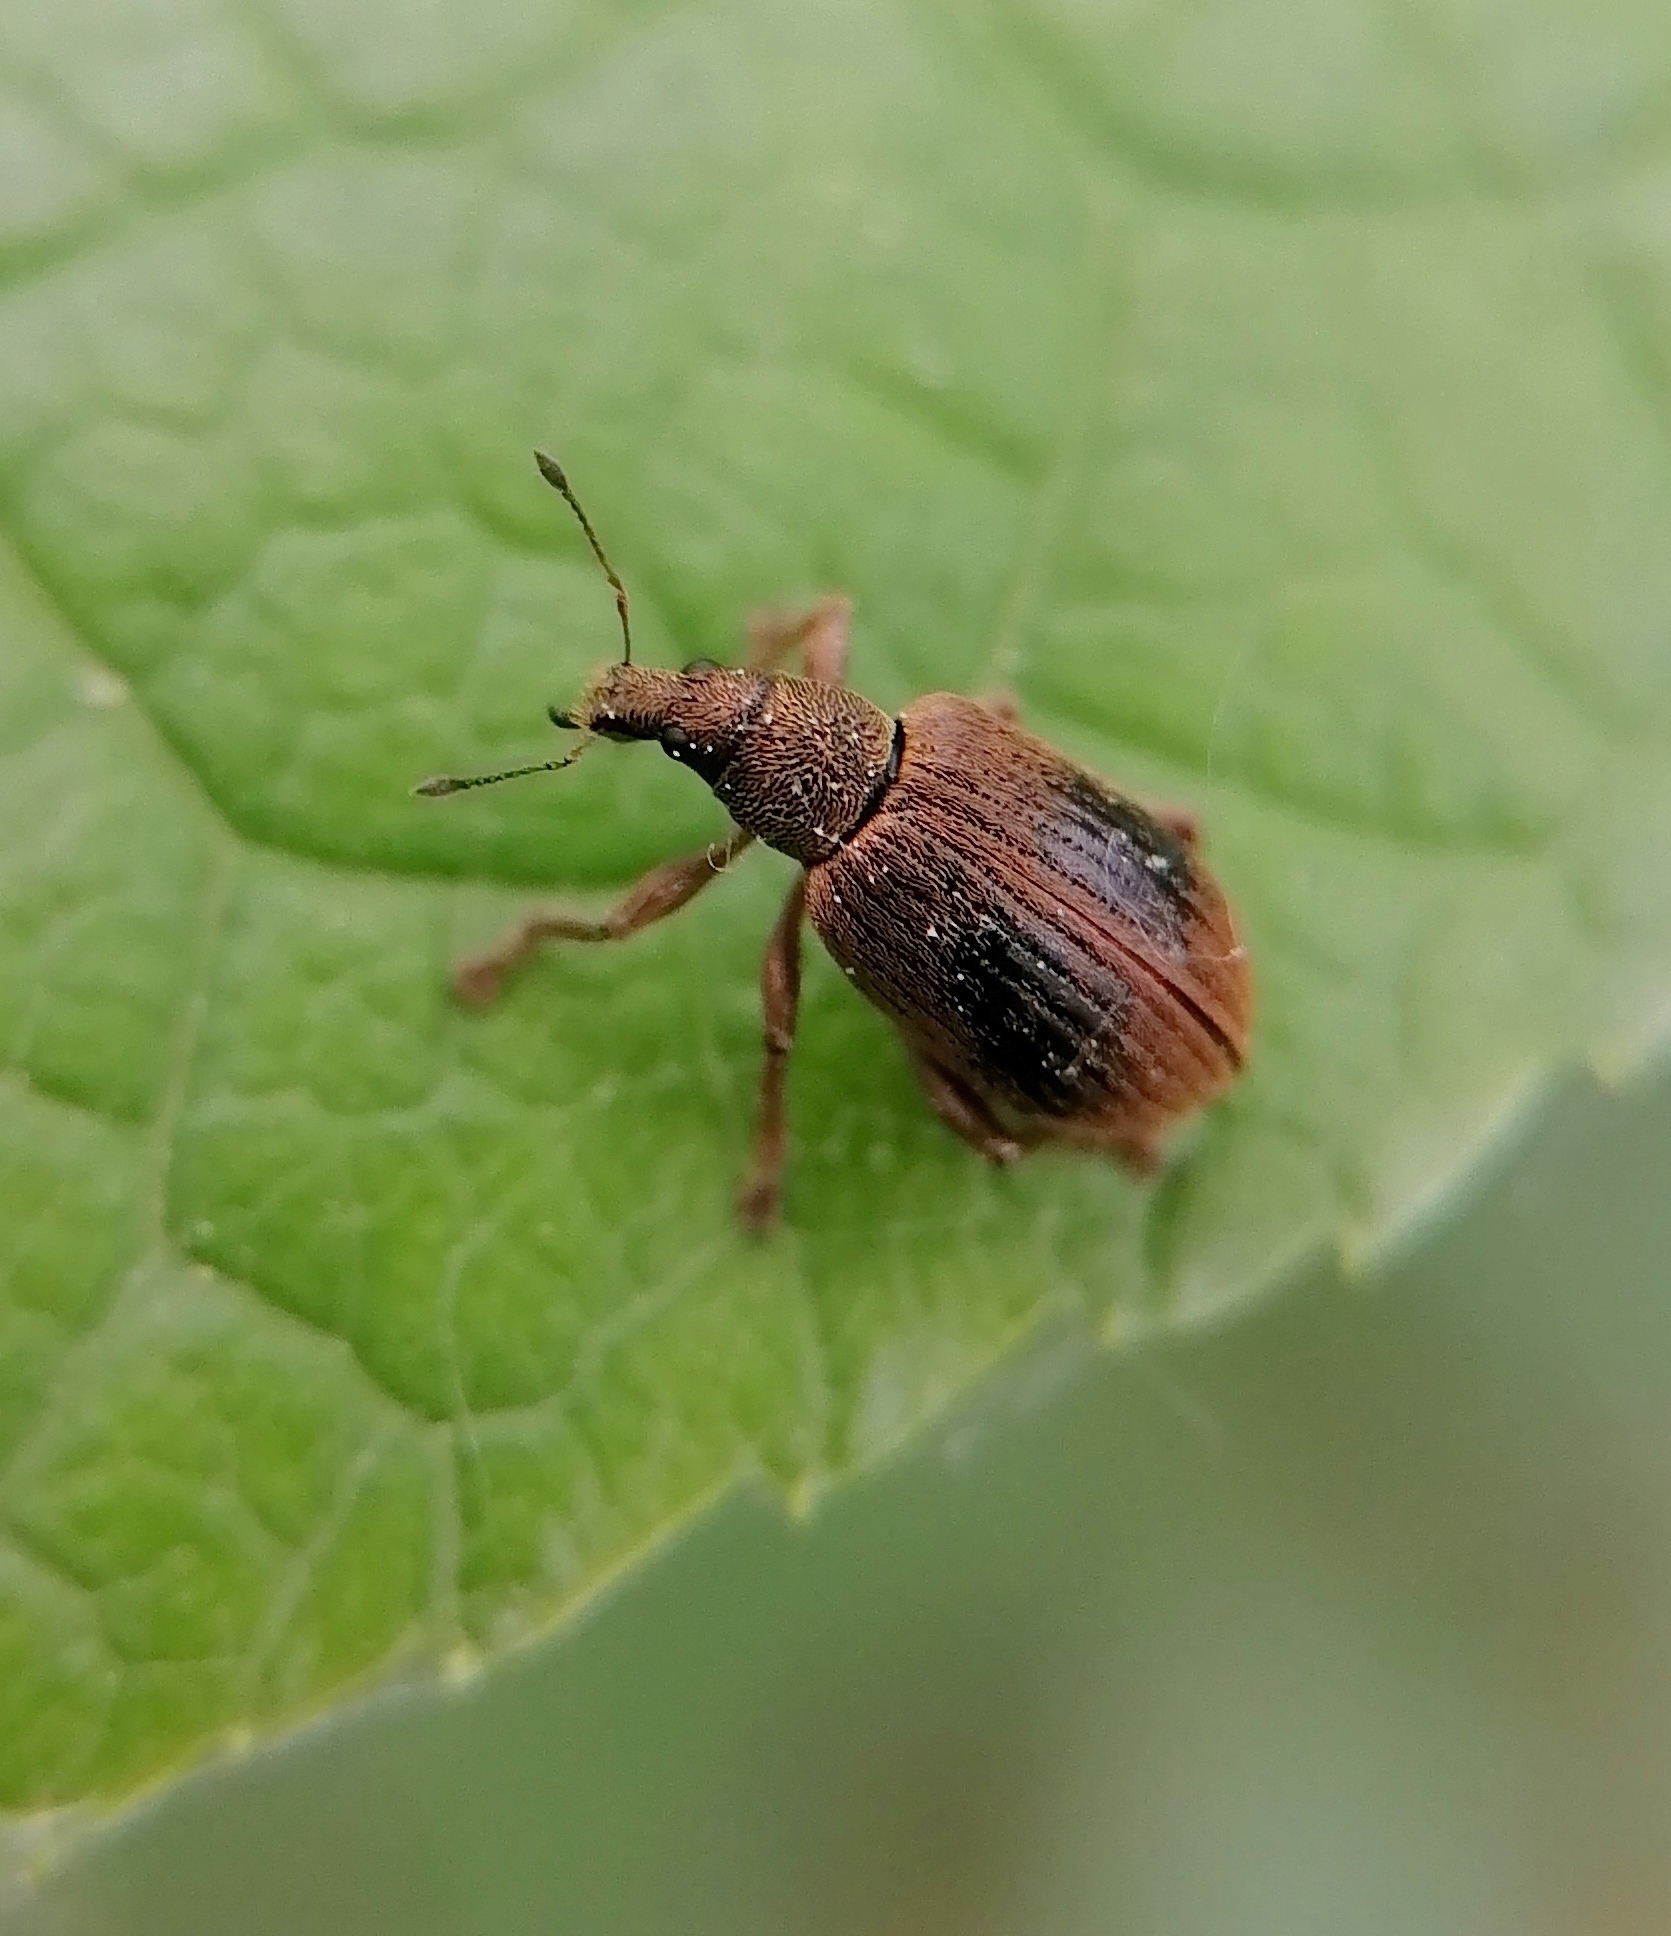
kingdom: Animalia
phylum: Arthropoda
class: Insecta
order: Coleoptera
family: Curculionidae
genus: Polydrusus
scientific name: Polydrusus mollis
